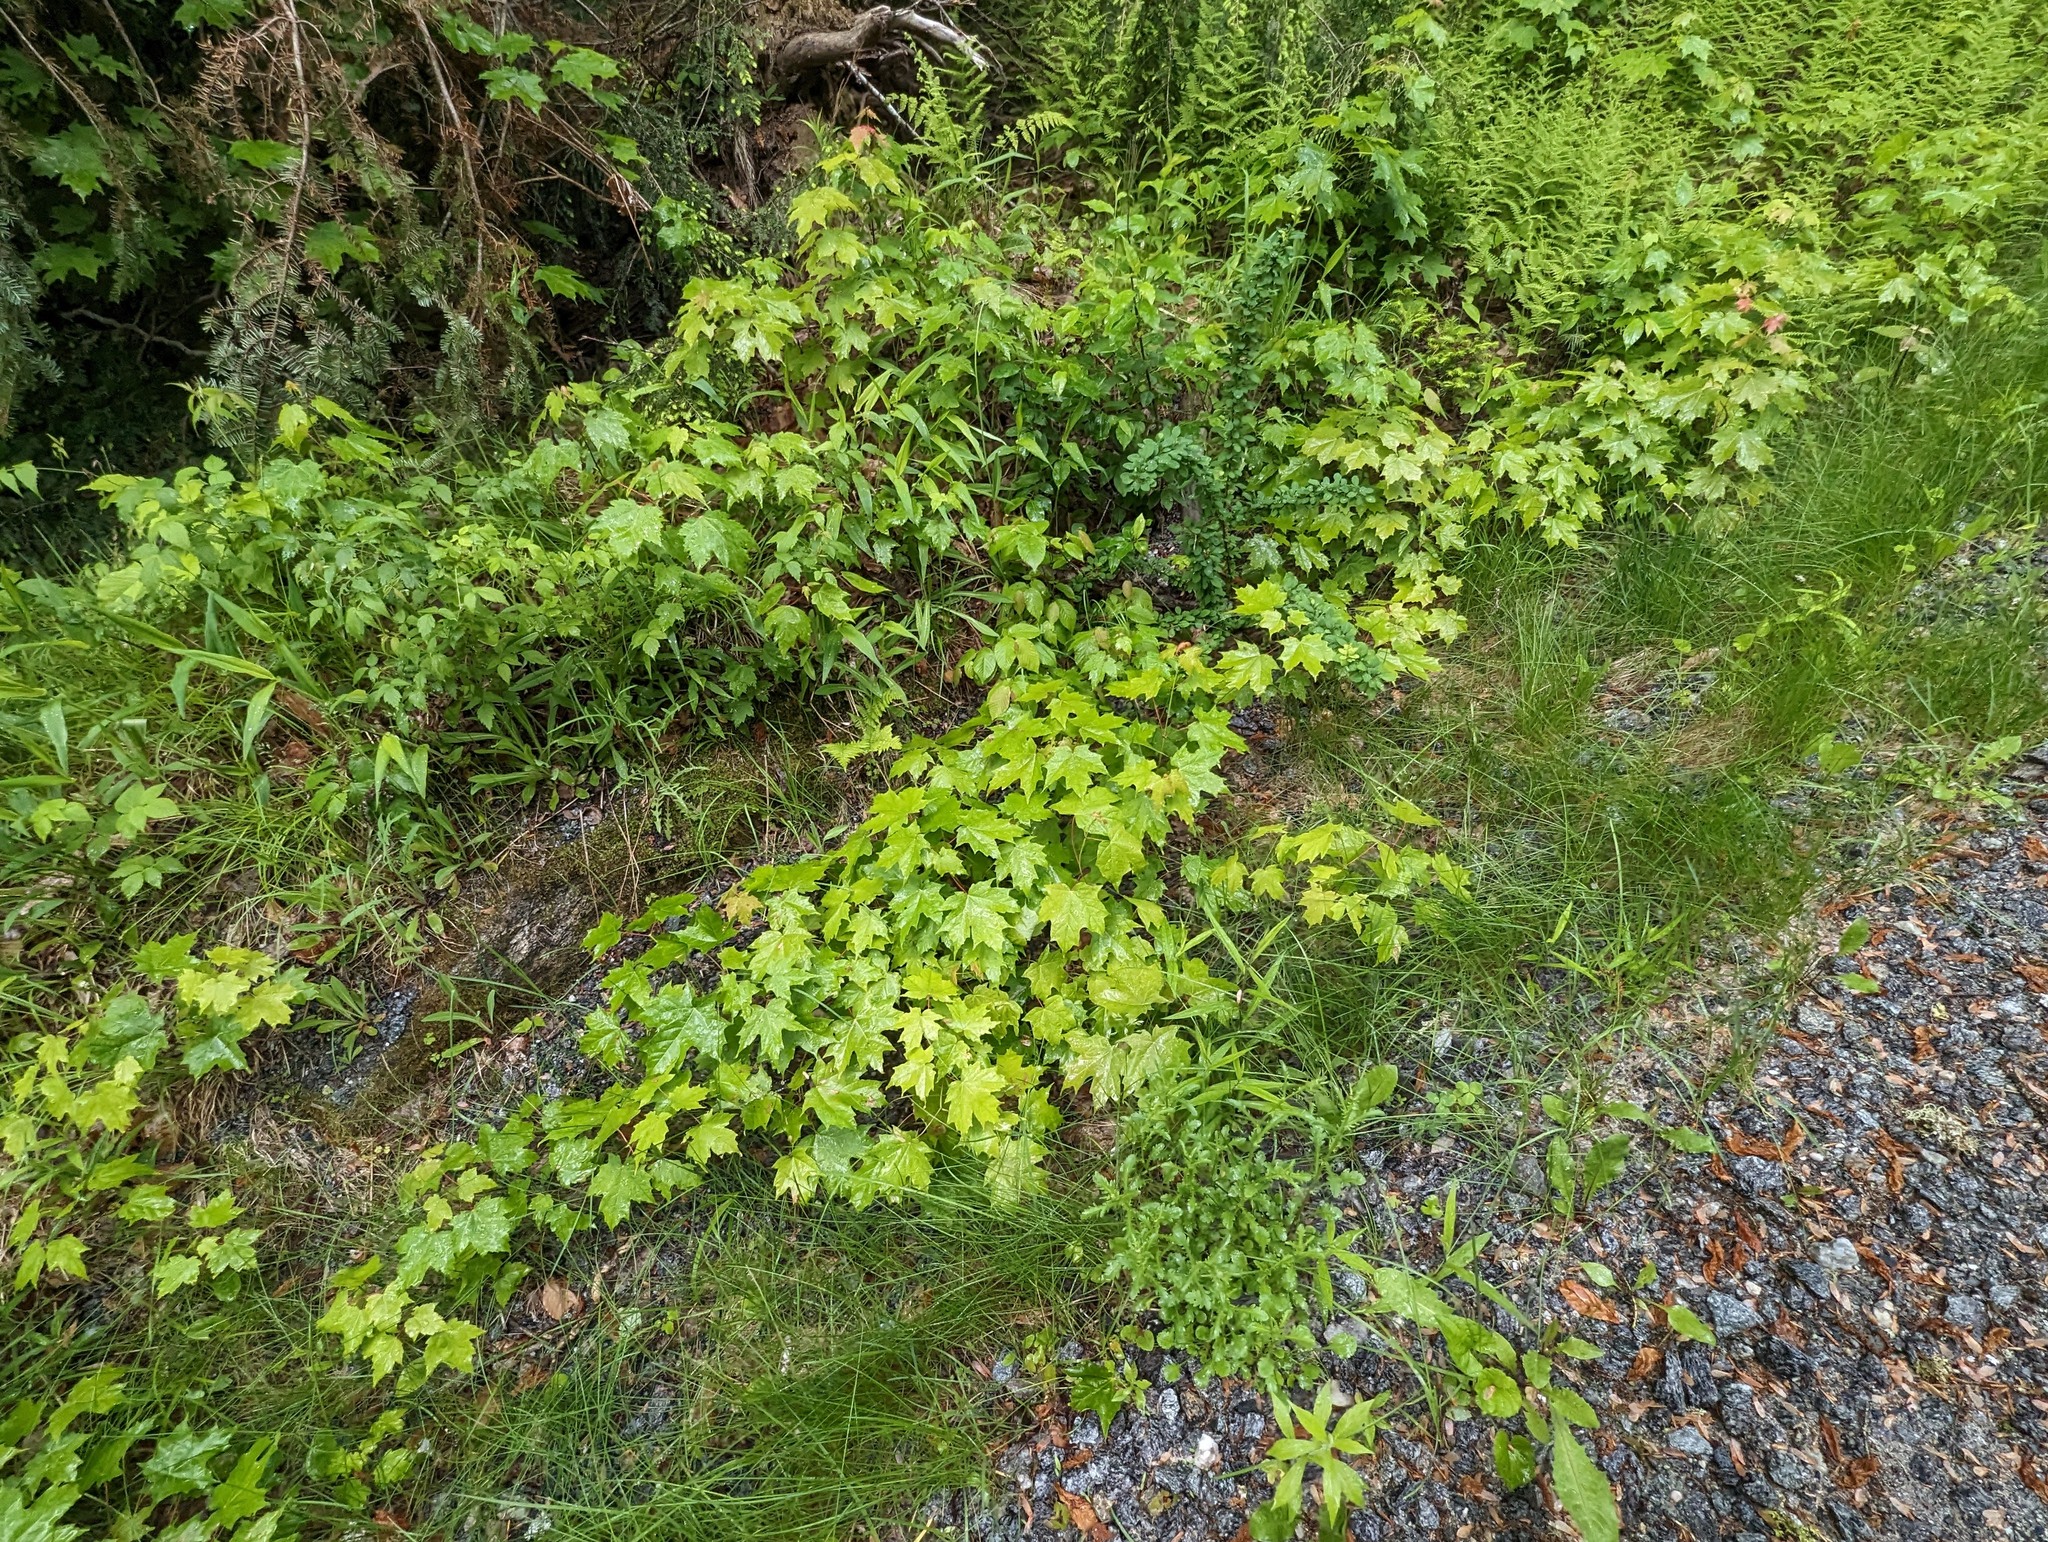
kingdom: Plantae
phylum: Tracheophyta
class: Magnoliopsida
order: Sapindales
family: Sapindaceae
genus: Acer
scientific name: Acer saccharum
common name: Sugar maple
